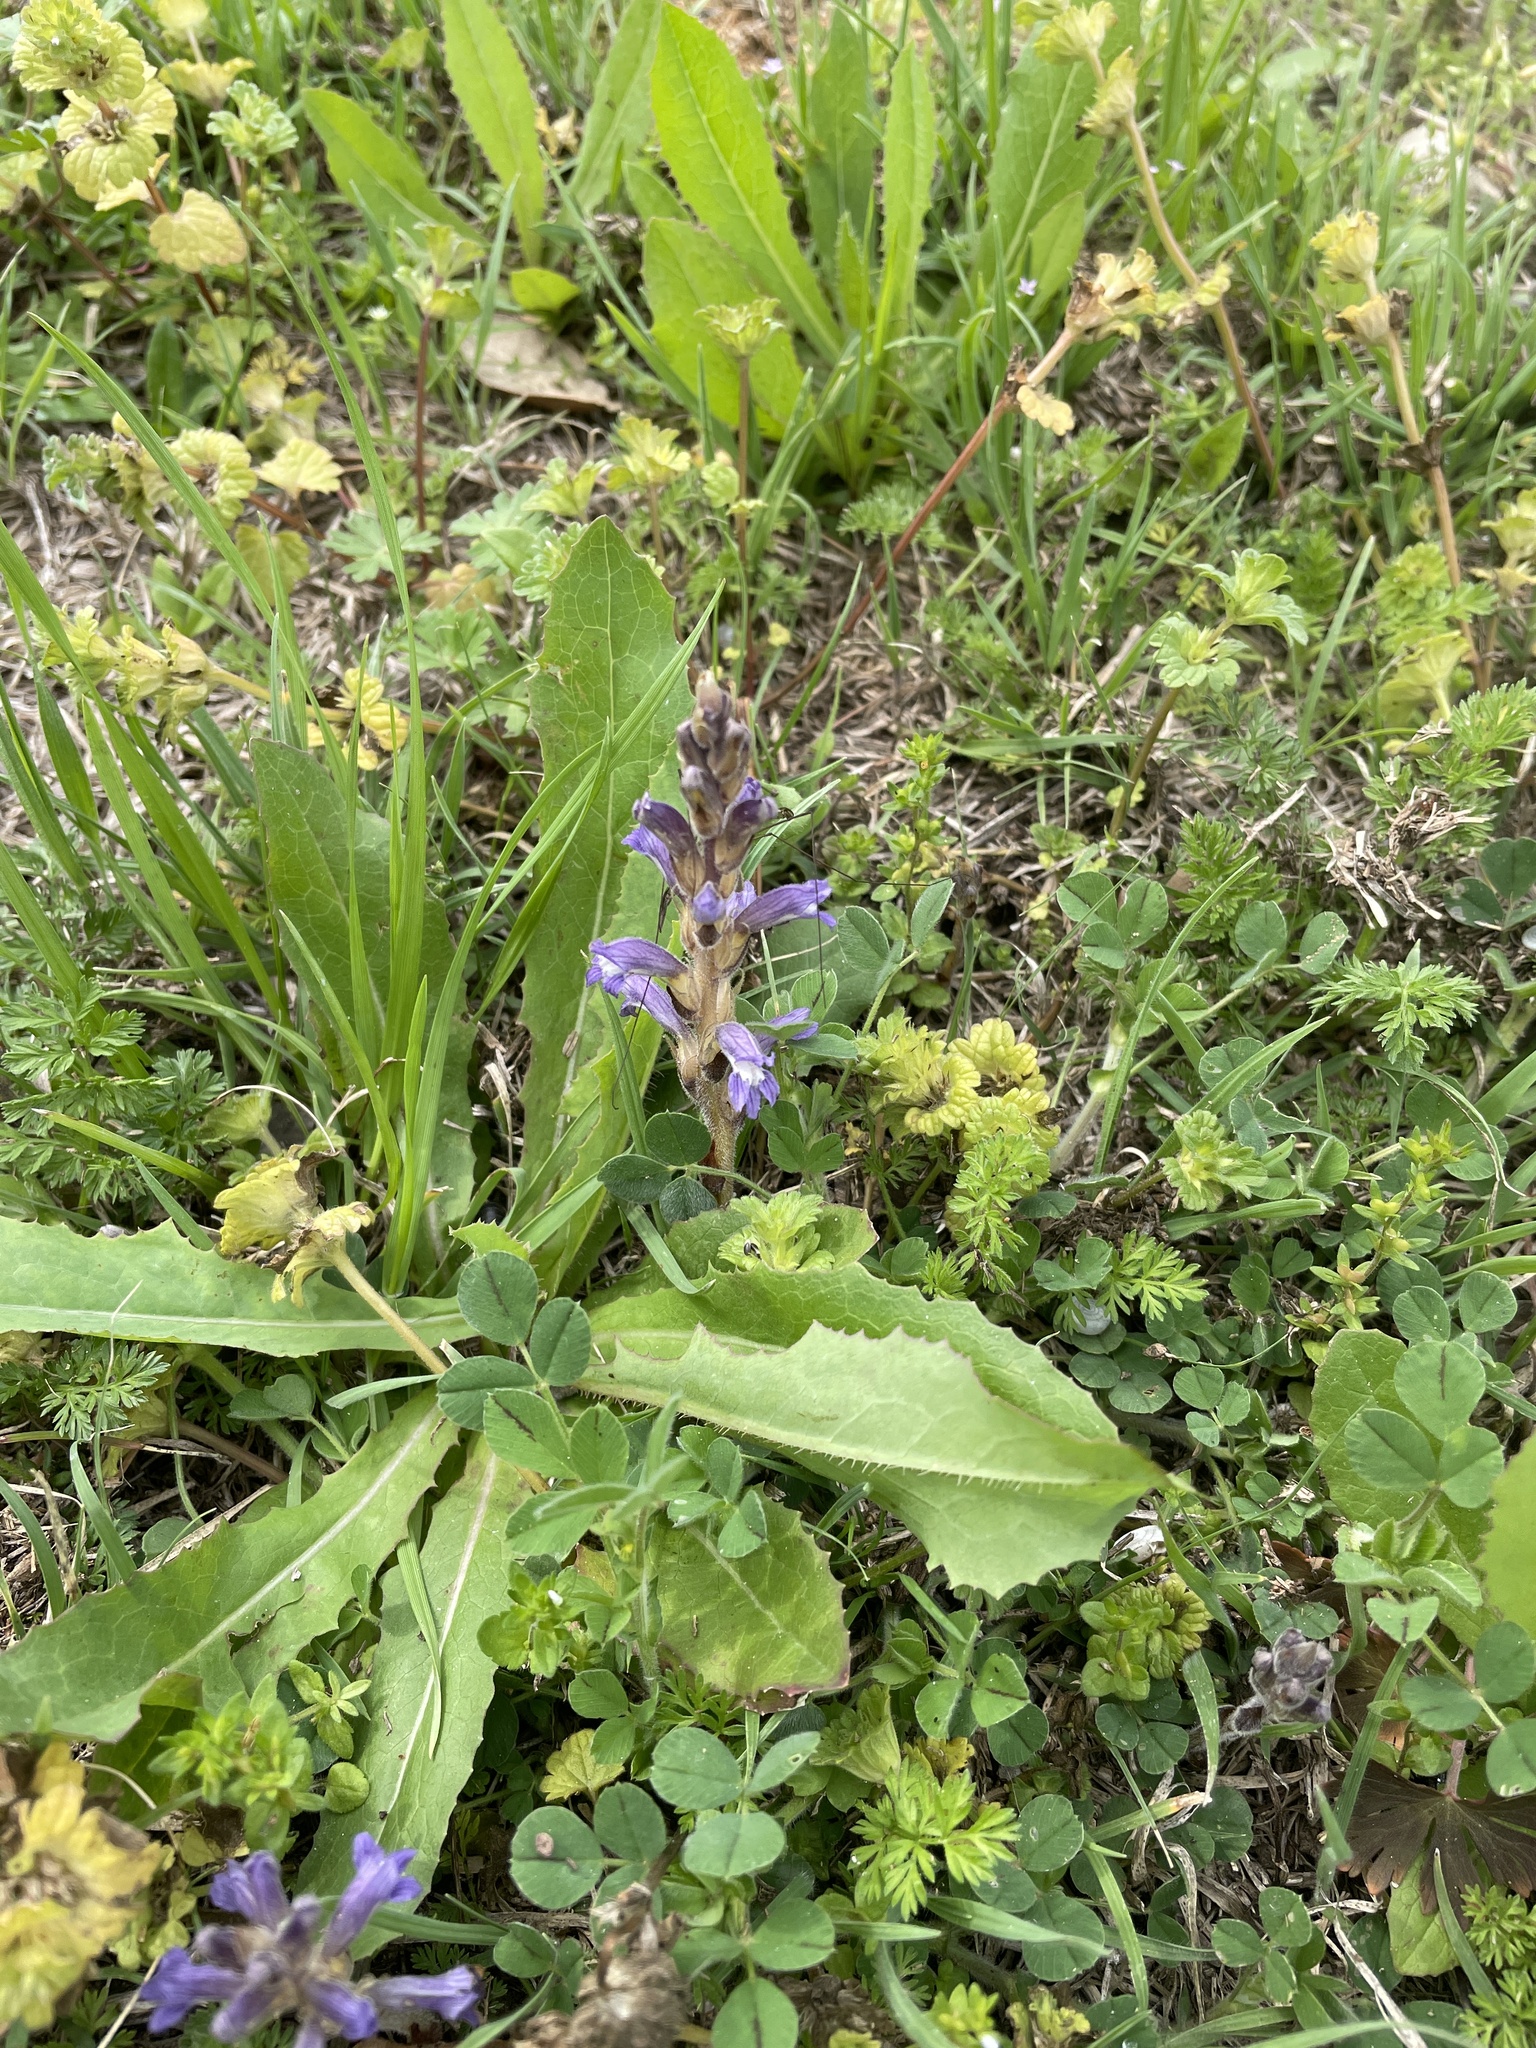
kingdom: Plantae
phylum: Tracheophyta
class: Magnoliopsida
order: Lamiales
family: Orobanchaceae
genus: Phelipanche
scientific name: Phelipanche mutelii
